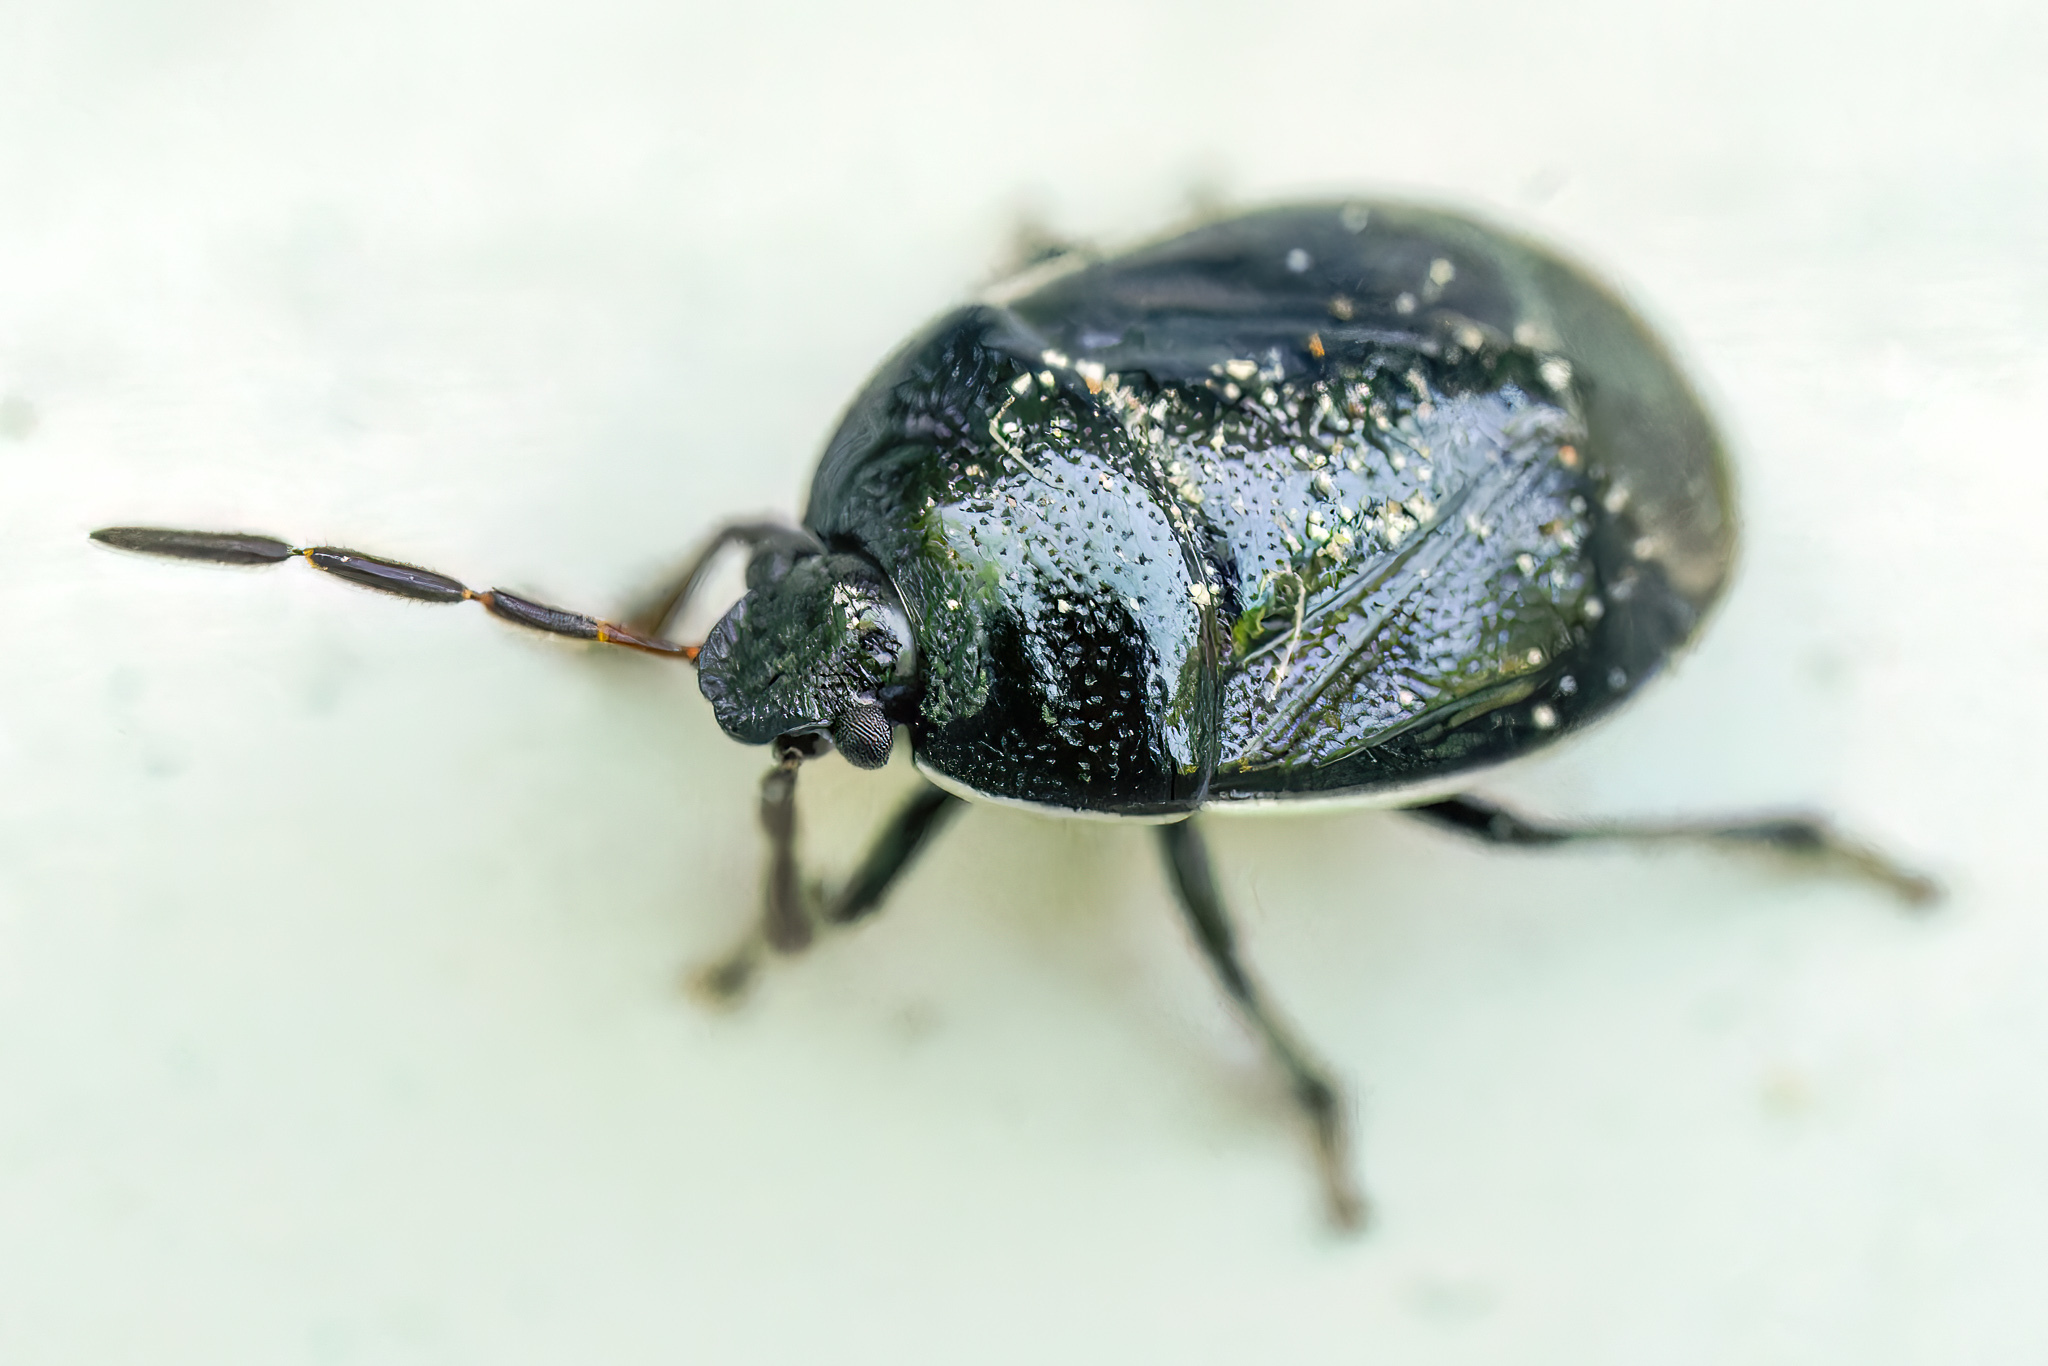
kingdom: Animalia
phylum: Arthropoda
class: Insecta
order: Hemiptera
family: Cydnidae
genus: Sehirus
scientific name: Sehirus cinctus
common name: White-margined burrower bug
